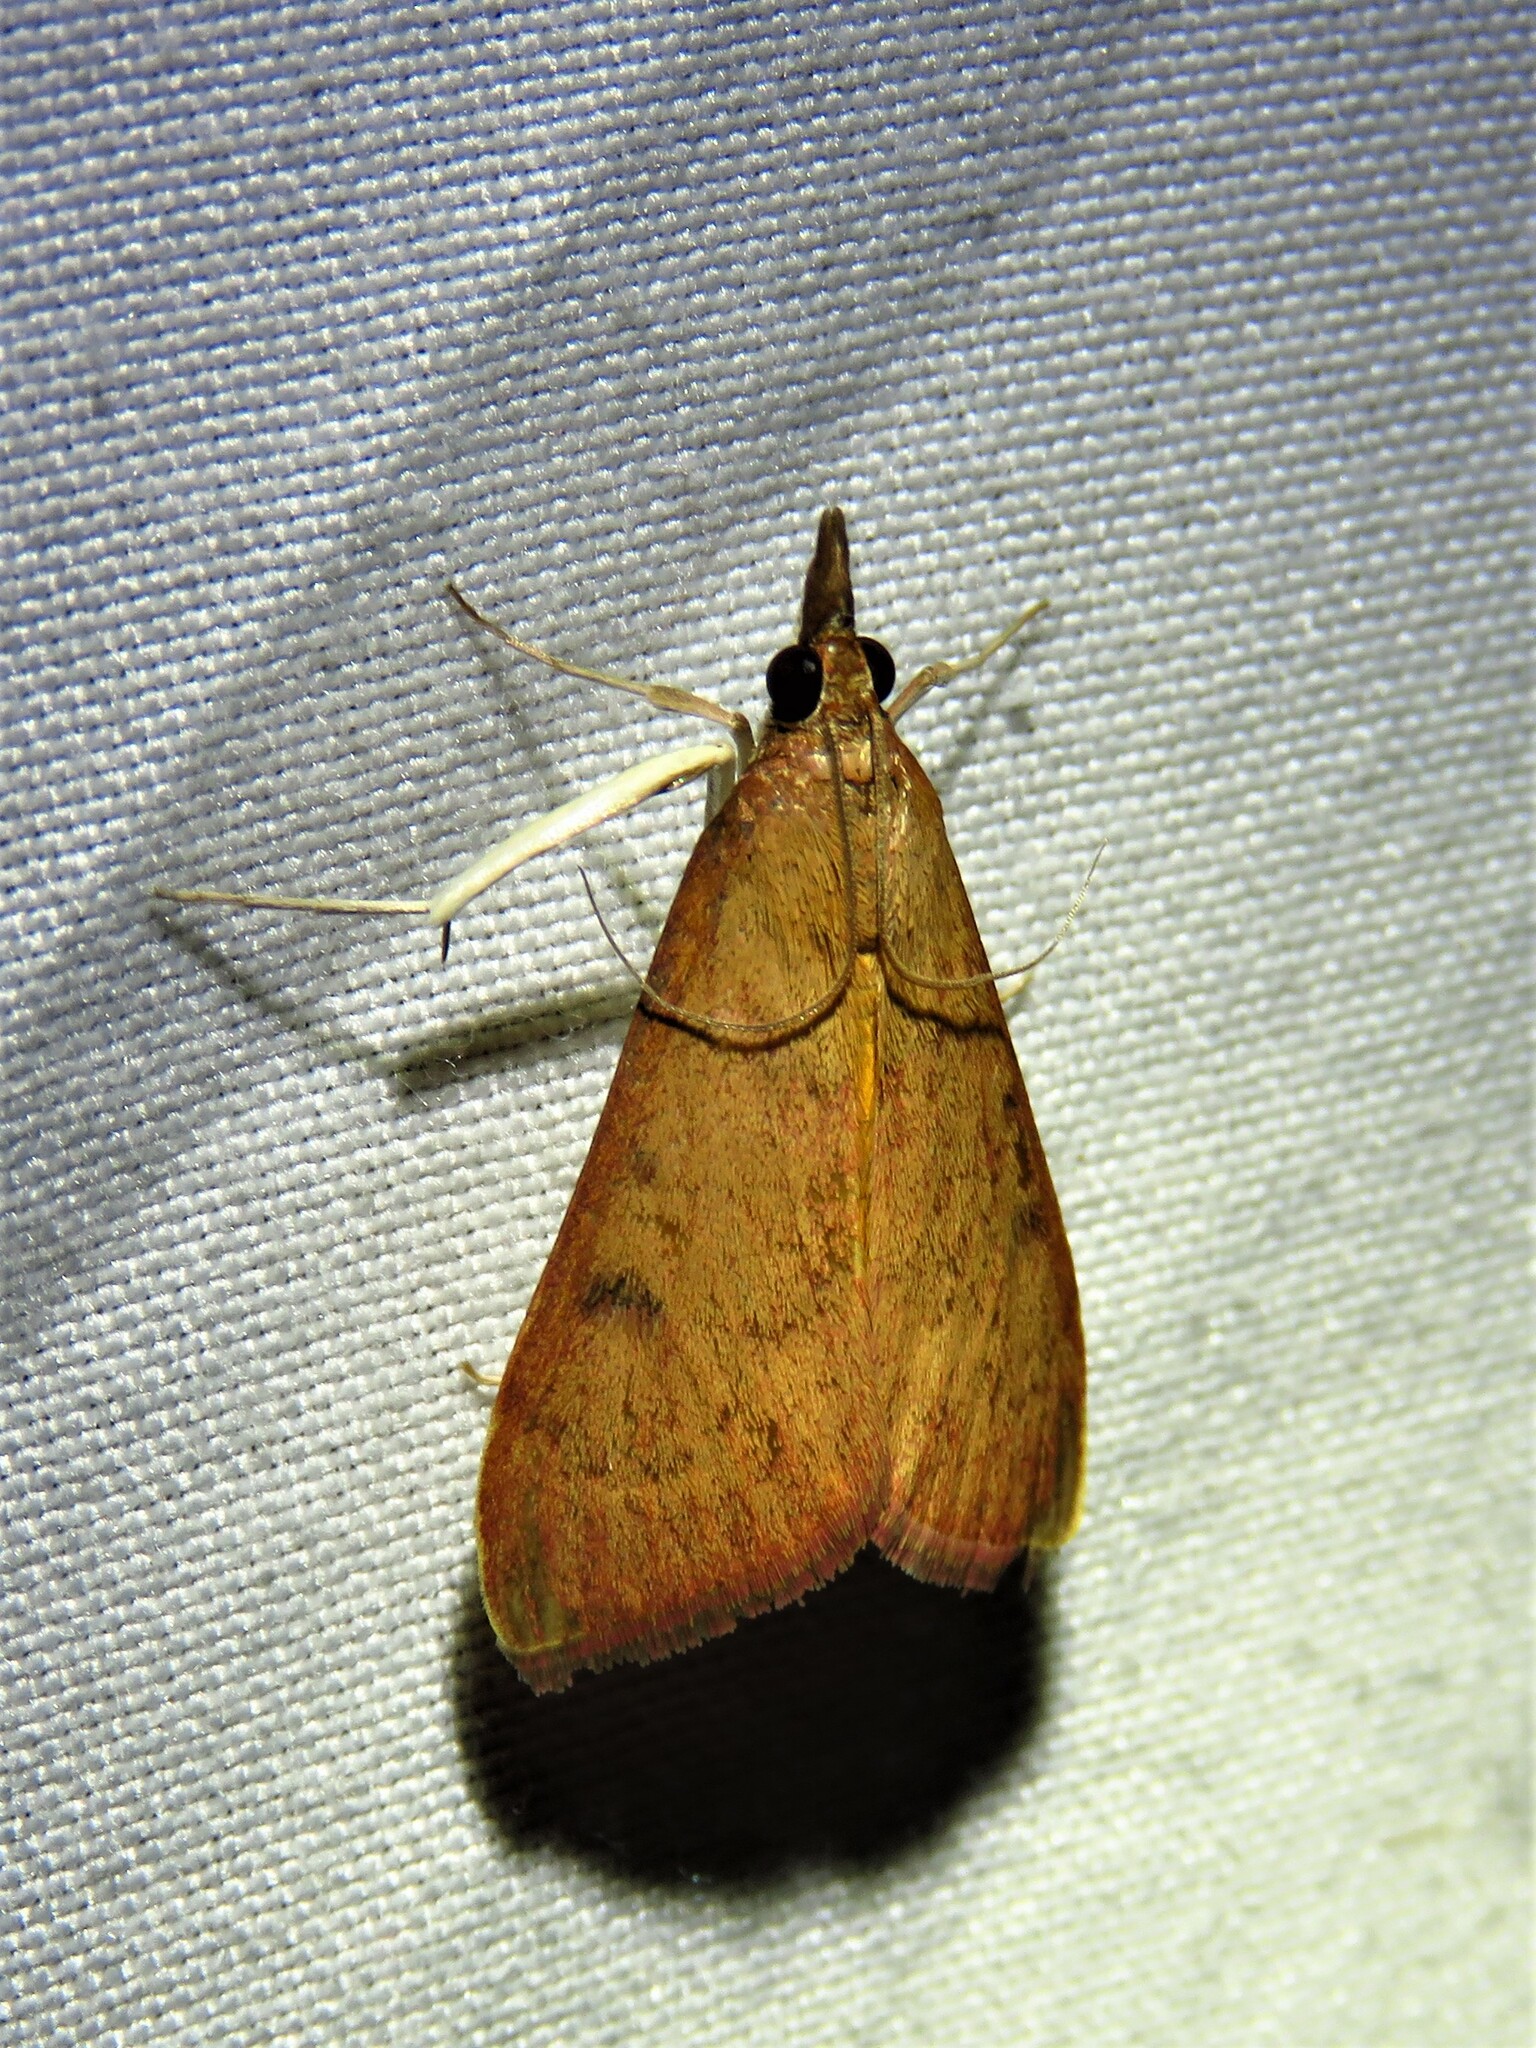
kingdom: Animalia
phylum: Arthropoda
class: Insecta
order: Lepidoptera
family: Crambidae
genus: Uresiphita
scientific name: Uresiphita reversalis
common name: Genista broom moth
